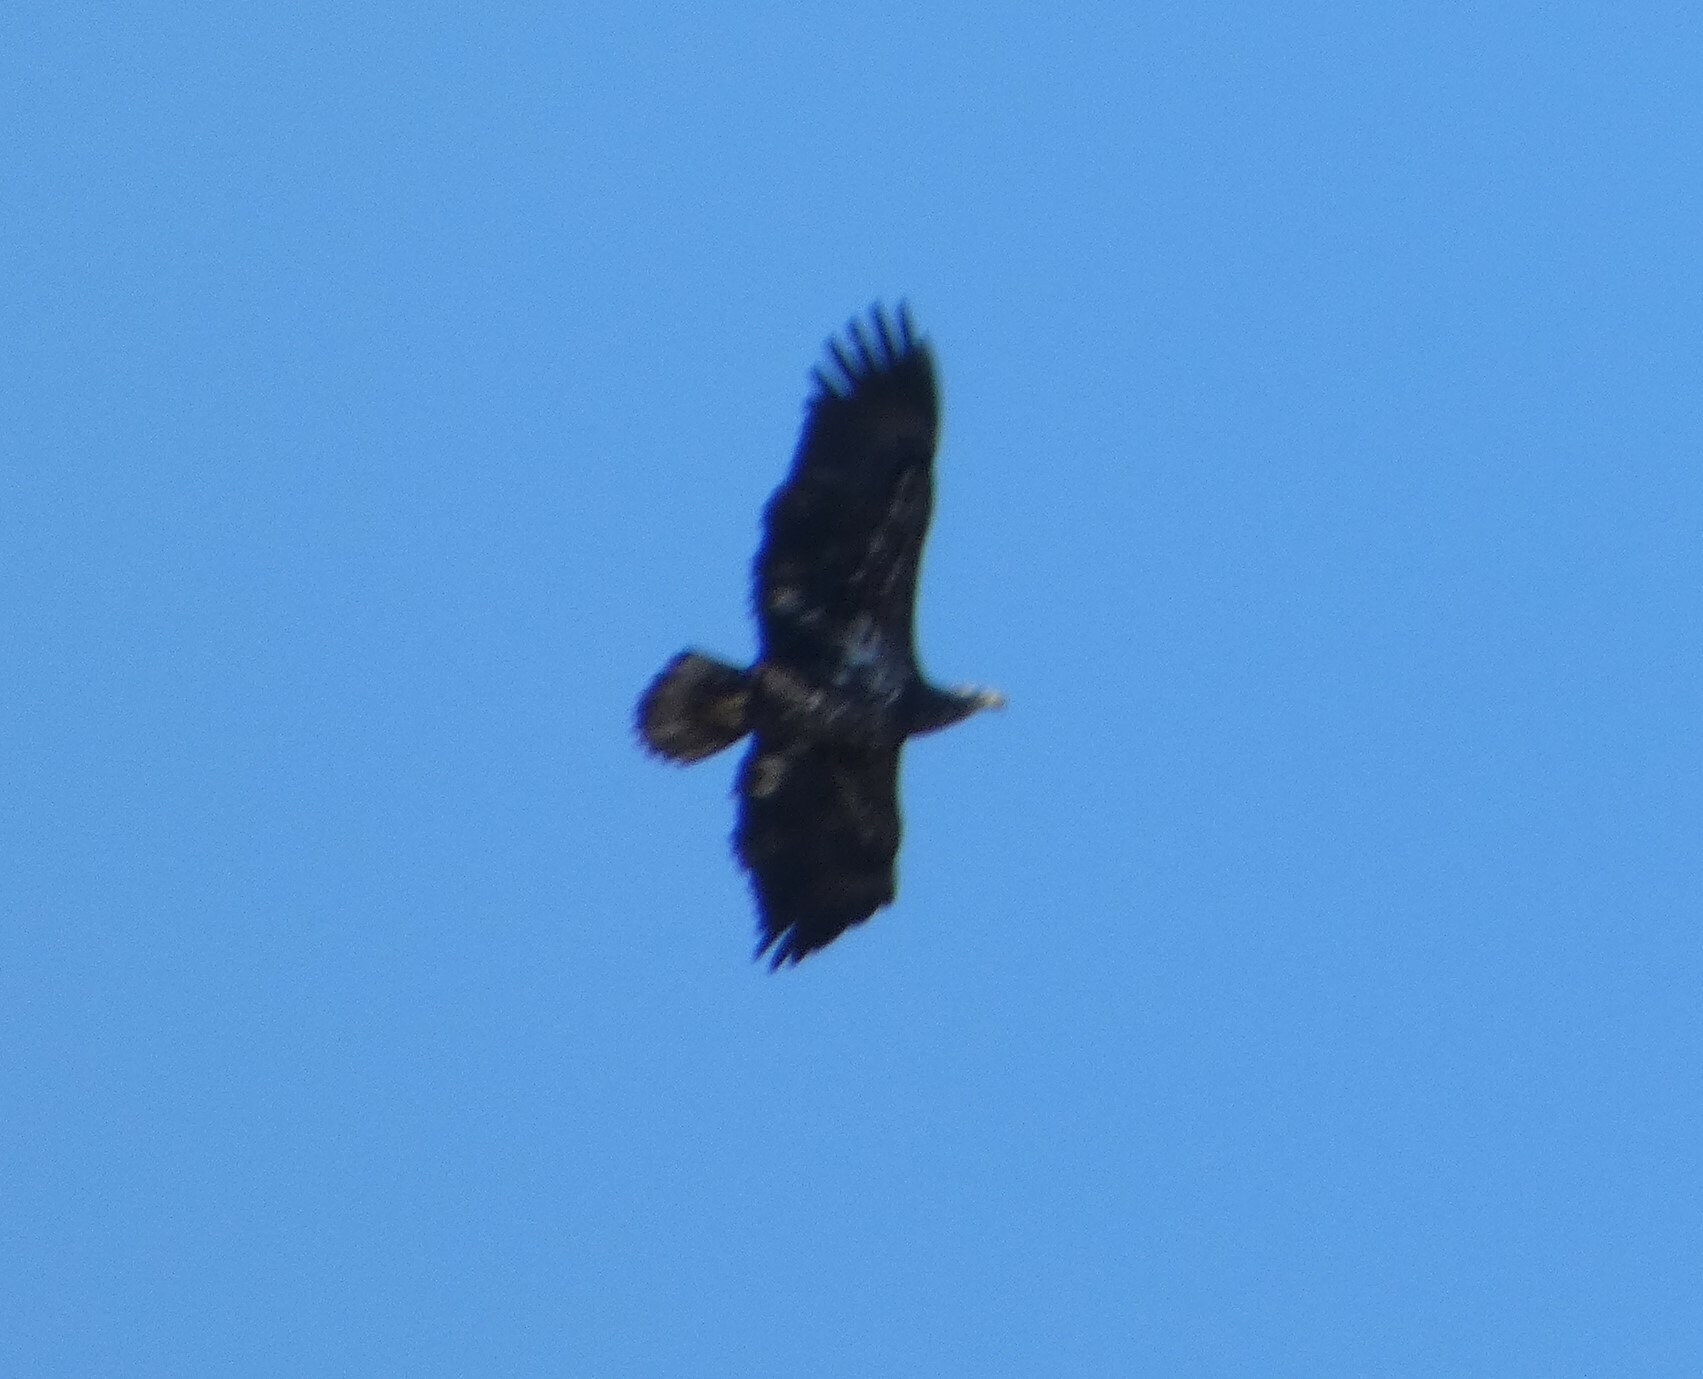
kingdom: Animalia
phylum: Chordata
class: Aves
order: Accipitriformes
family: Accipitridae
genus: Haliaeetus
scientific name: Haliaeetus leucocephalus
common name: Bald eagle
